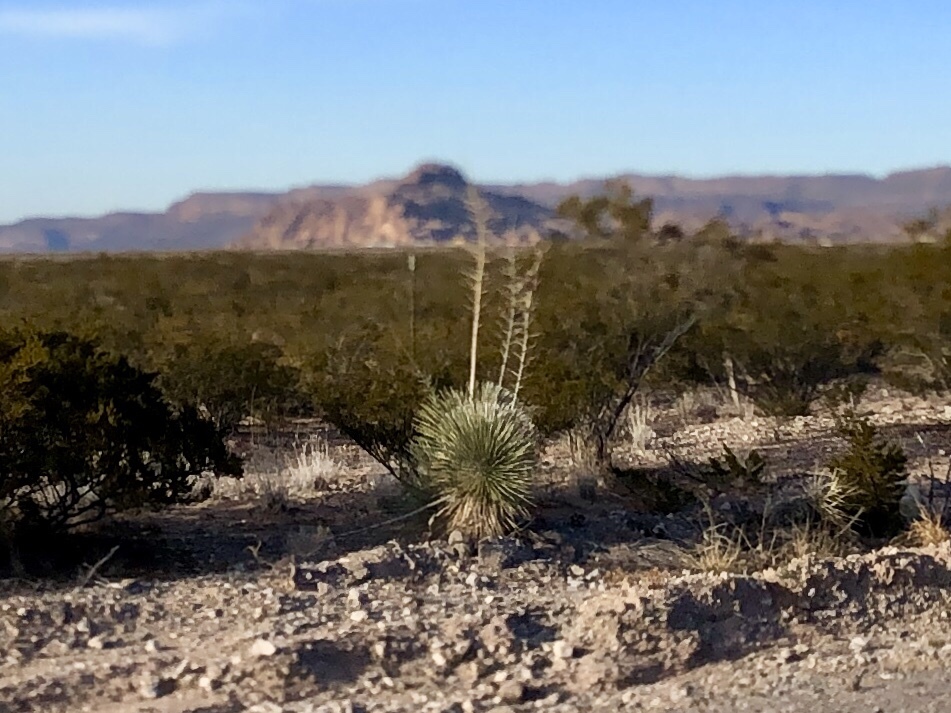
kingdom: Plantae
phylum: Tracheophyta
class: Liliopsida
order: Asparagales
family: Asparagaceae
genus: Yucca
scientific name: Yucca elata
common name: Palmella
